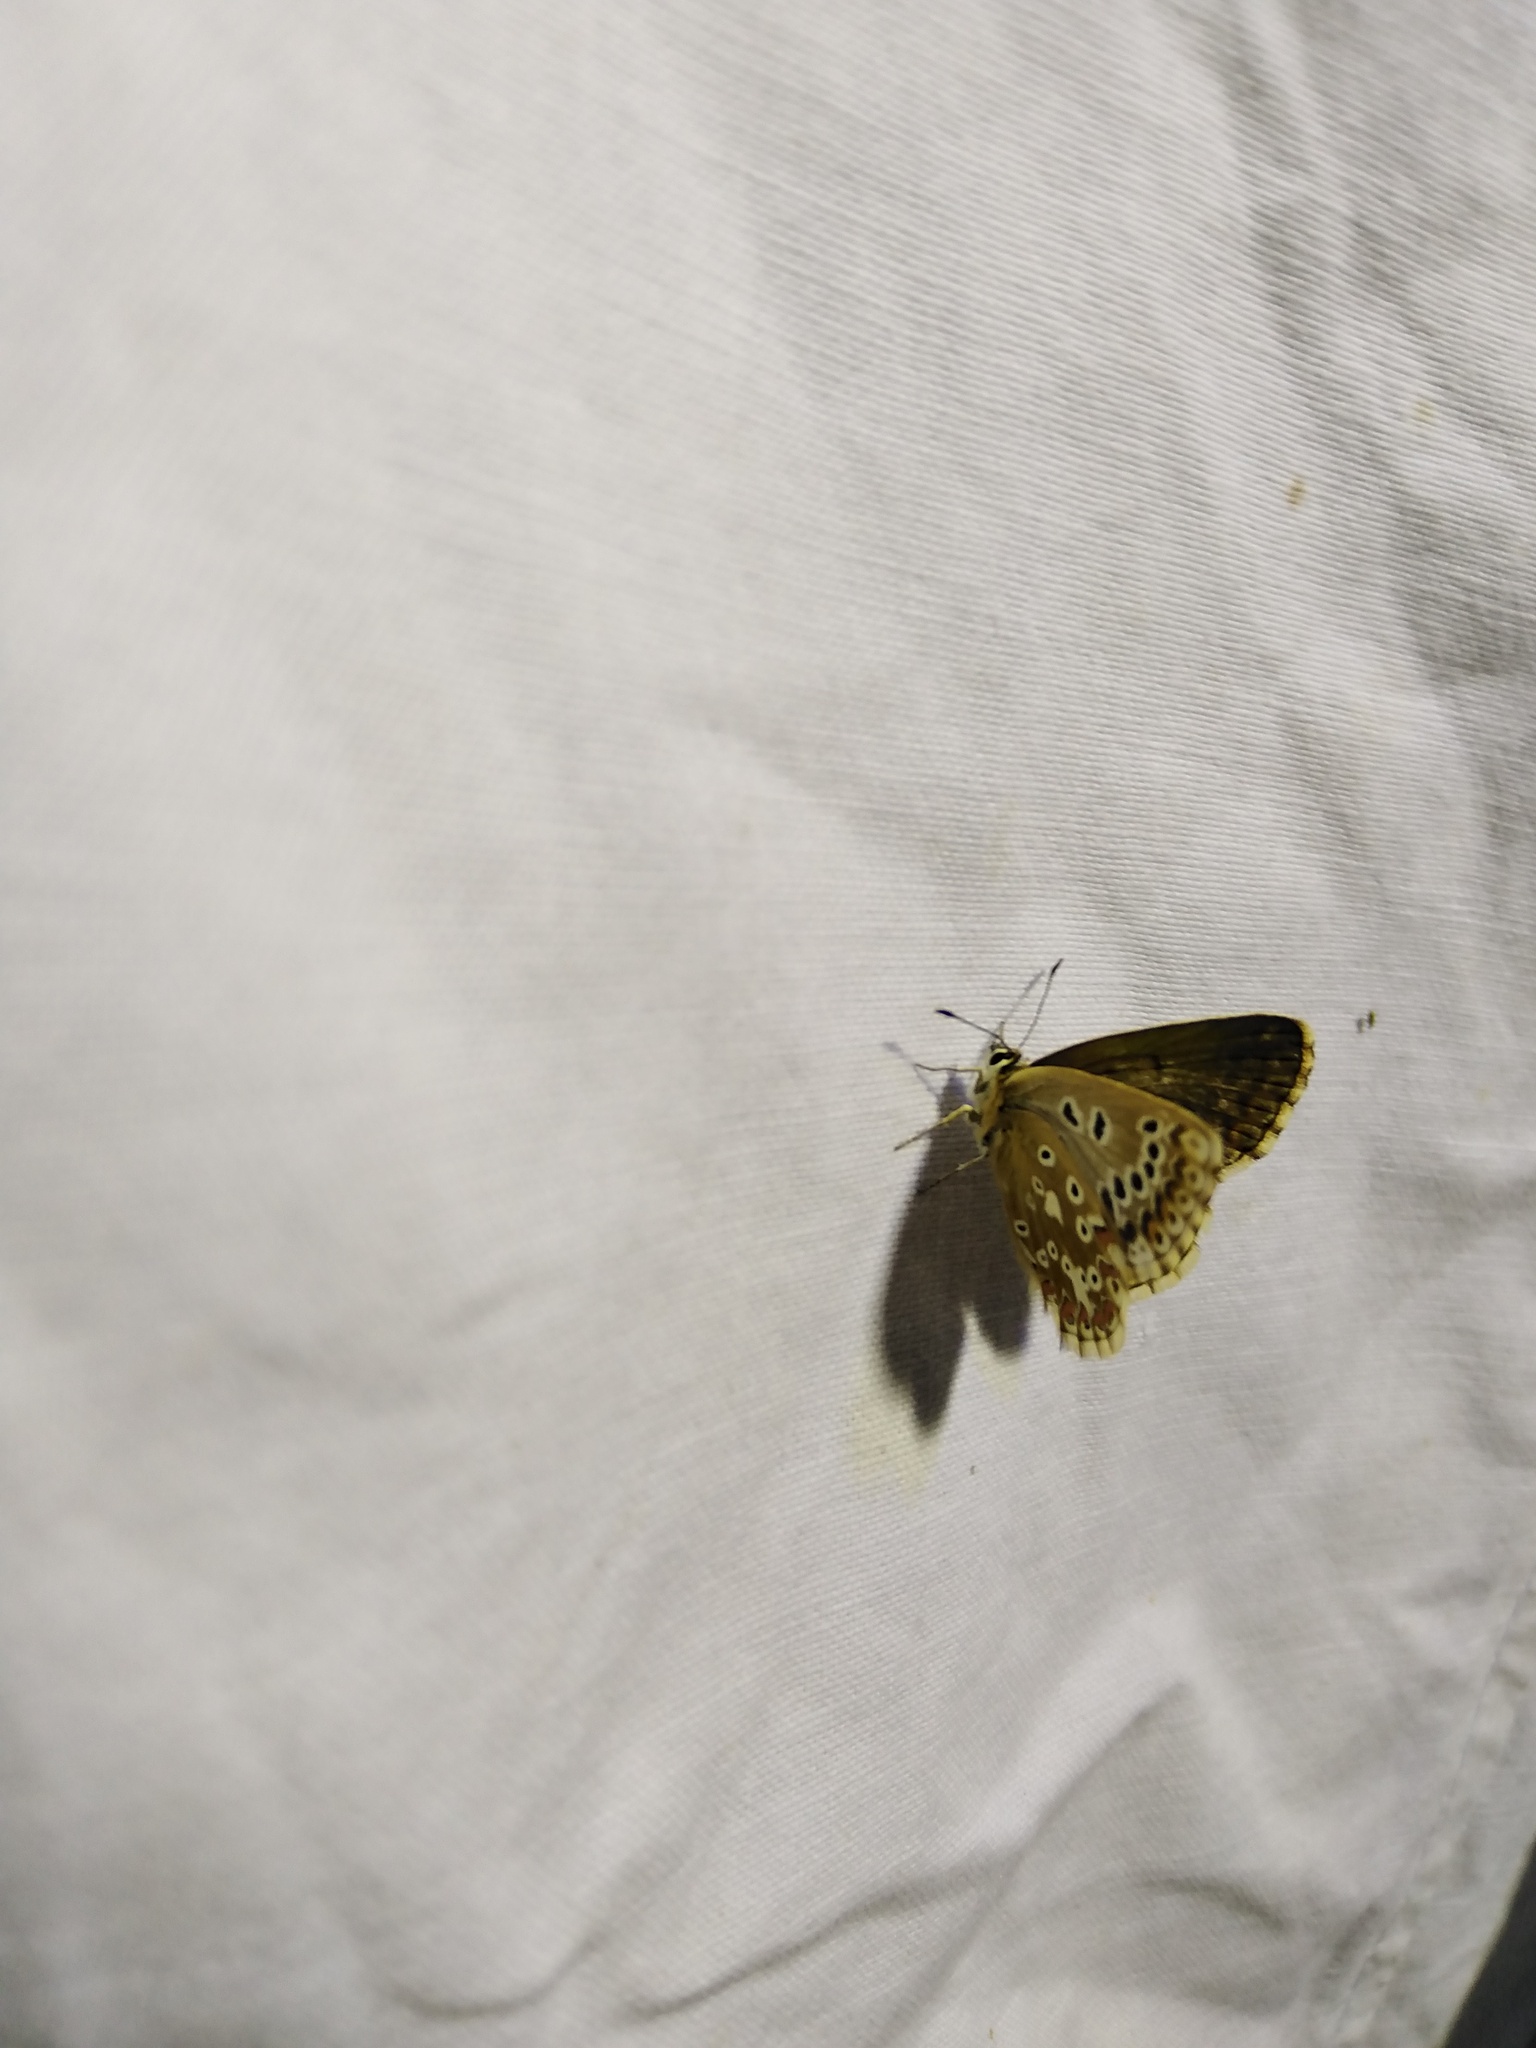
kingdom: Animalia
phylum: Arthropoda
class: Insecta
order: Lepidoptera
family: Lycaenidae
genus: Lysandra
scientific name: Lysandra bellargus
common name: Adonis blue
